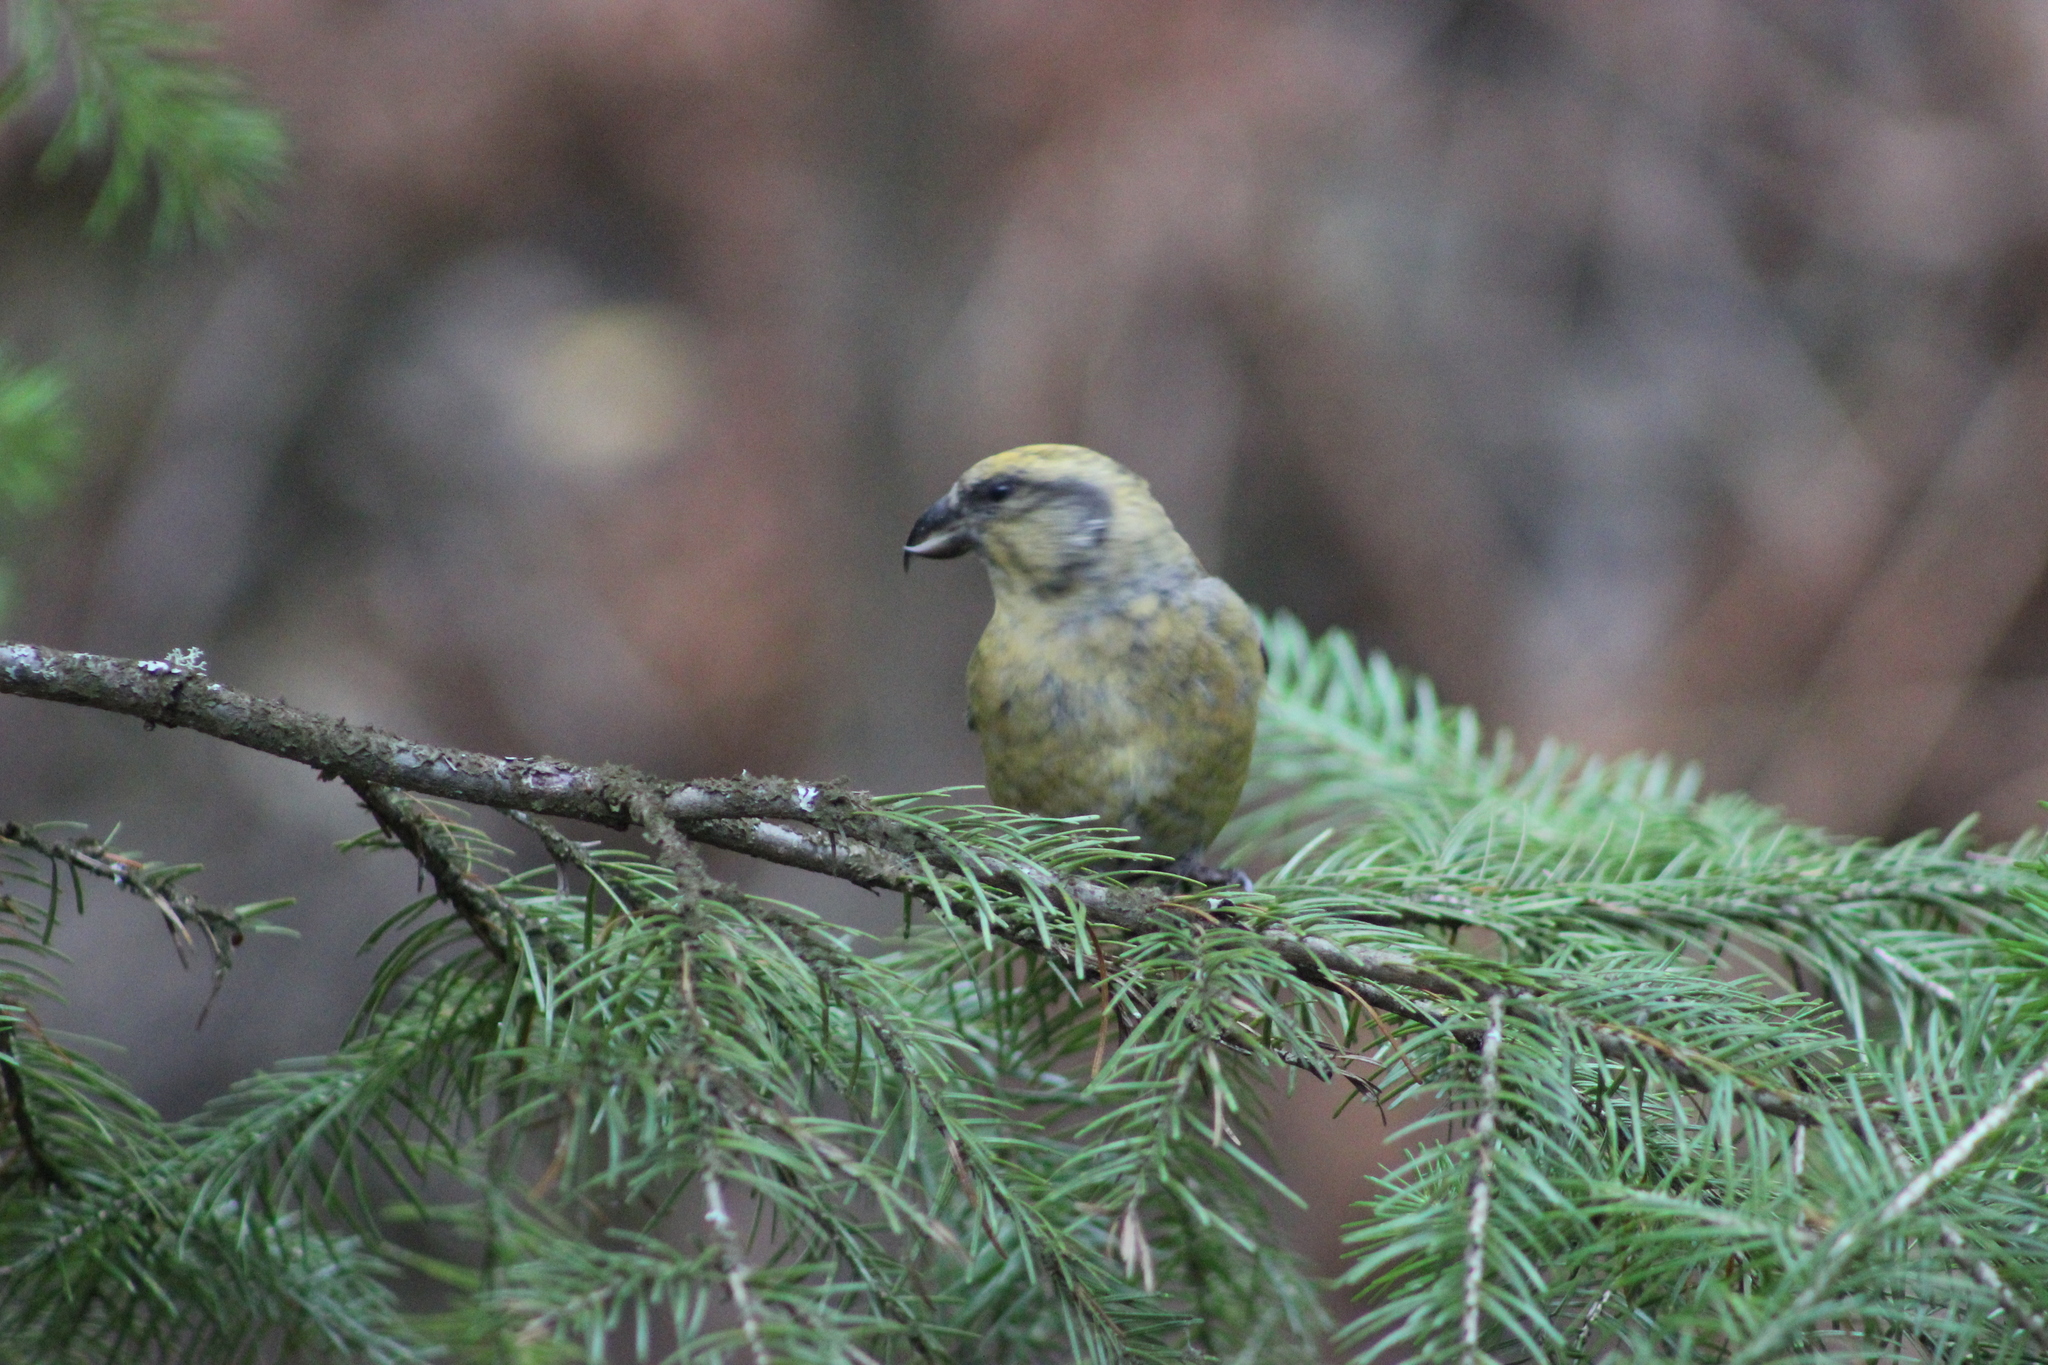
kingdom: Animalia
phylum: Chordata
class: Aves
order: Passeriformes
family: Fringillidae
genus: Loxia
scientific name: Loxia curvirostra
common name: Red crossbill
